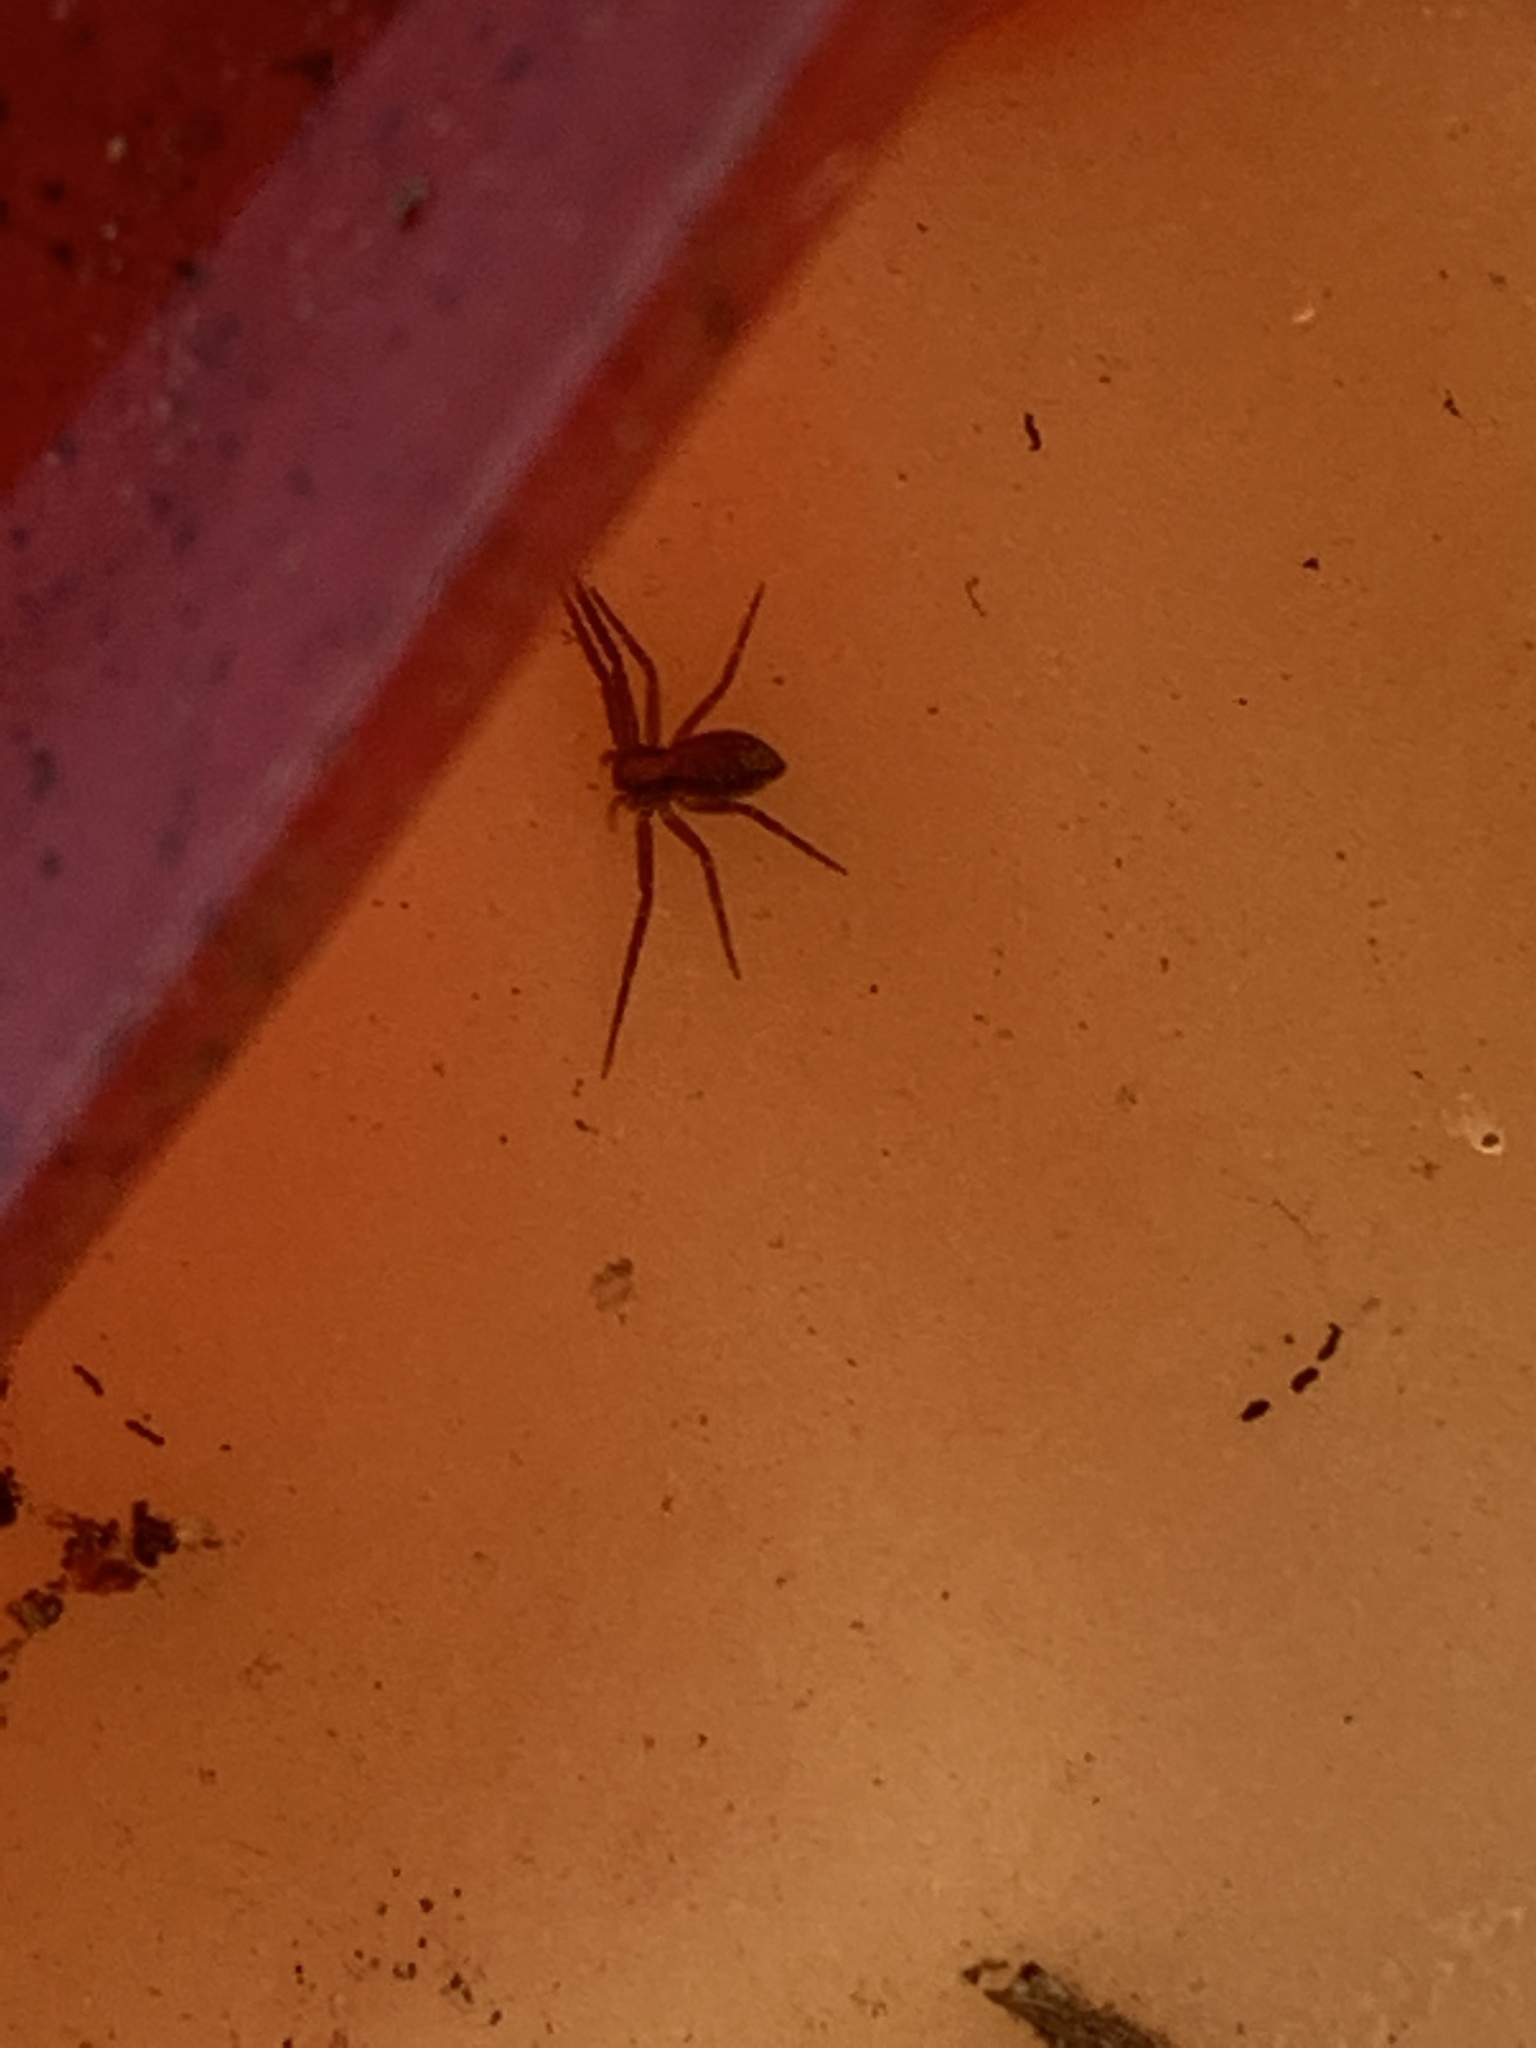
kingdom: Animalia
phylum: Arthropoda
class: Arachnida
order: Araneae
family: Philodromidae
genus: Philodromus
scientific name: Philodromus
